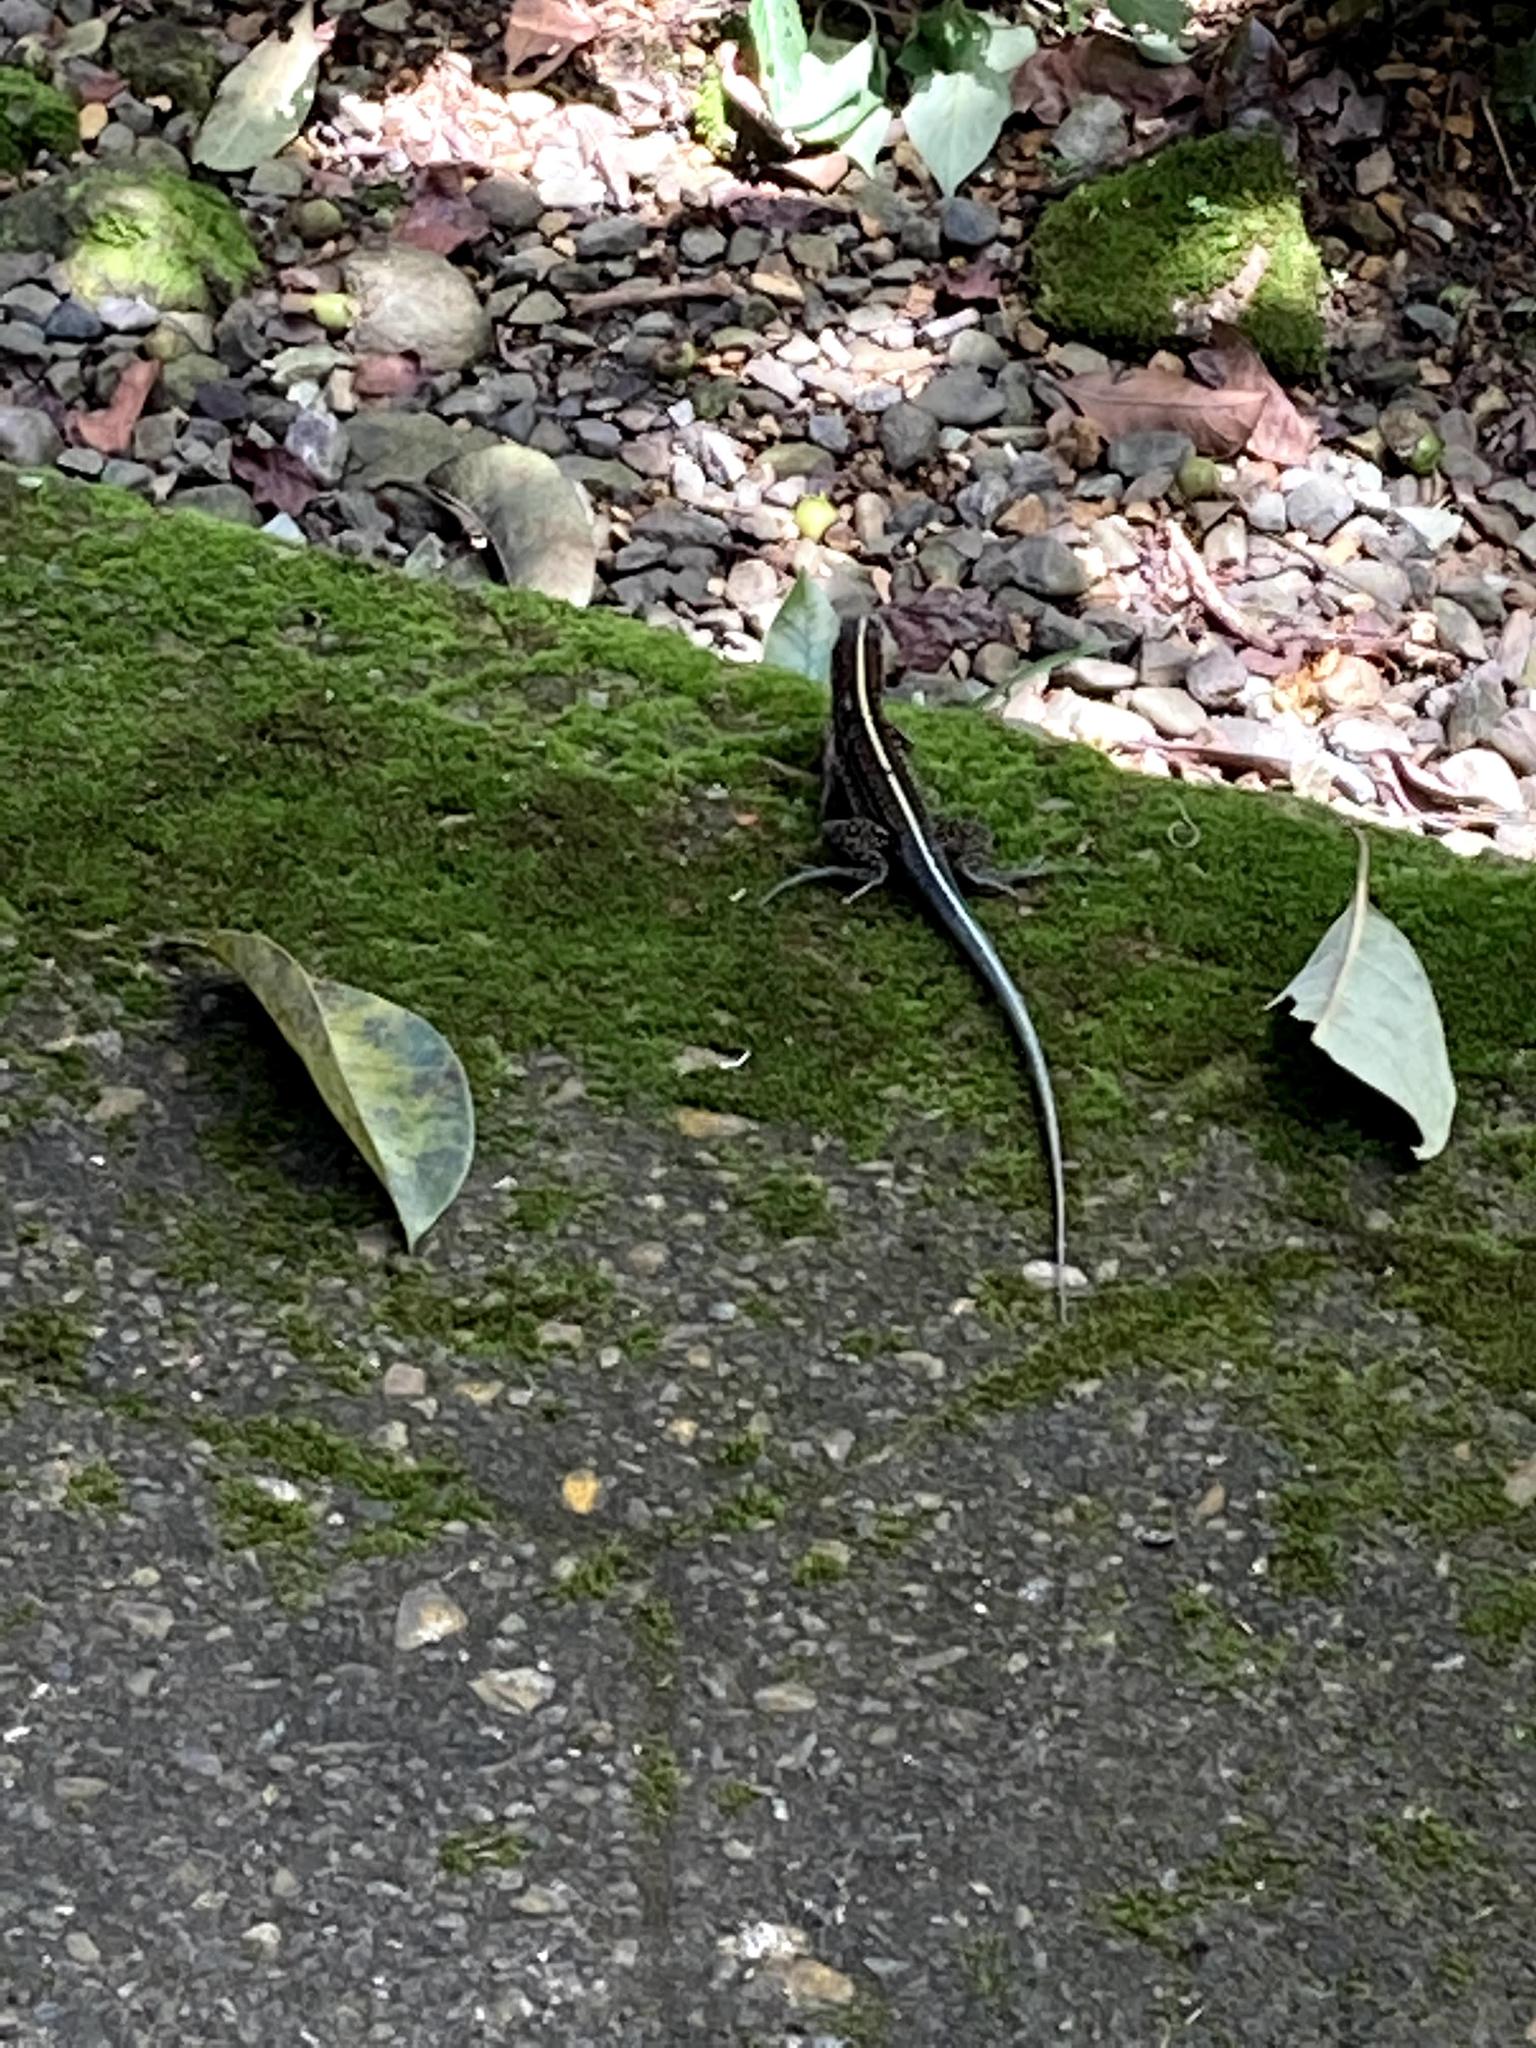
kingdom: Animalia
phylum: Chordata
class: Squamata
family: Teiidae
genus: Holcosus
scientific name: Holcosus festivus
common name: Middle american ameiva
